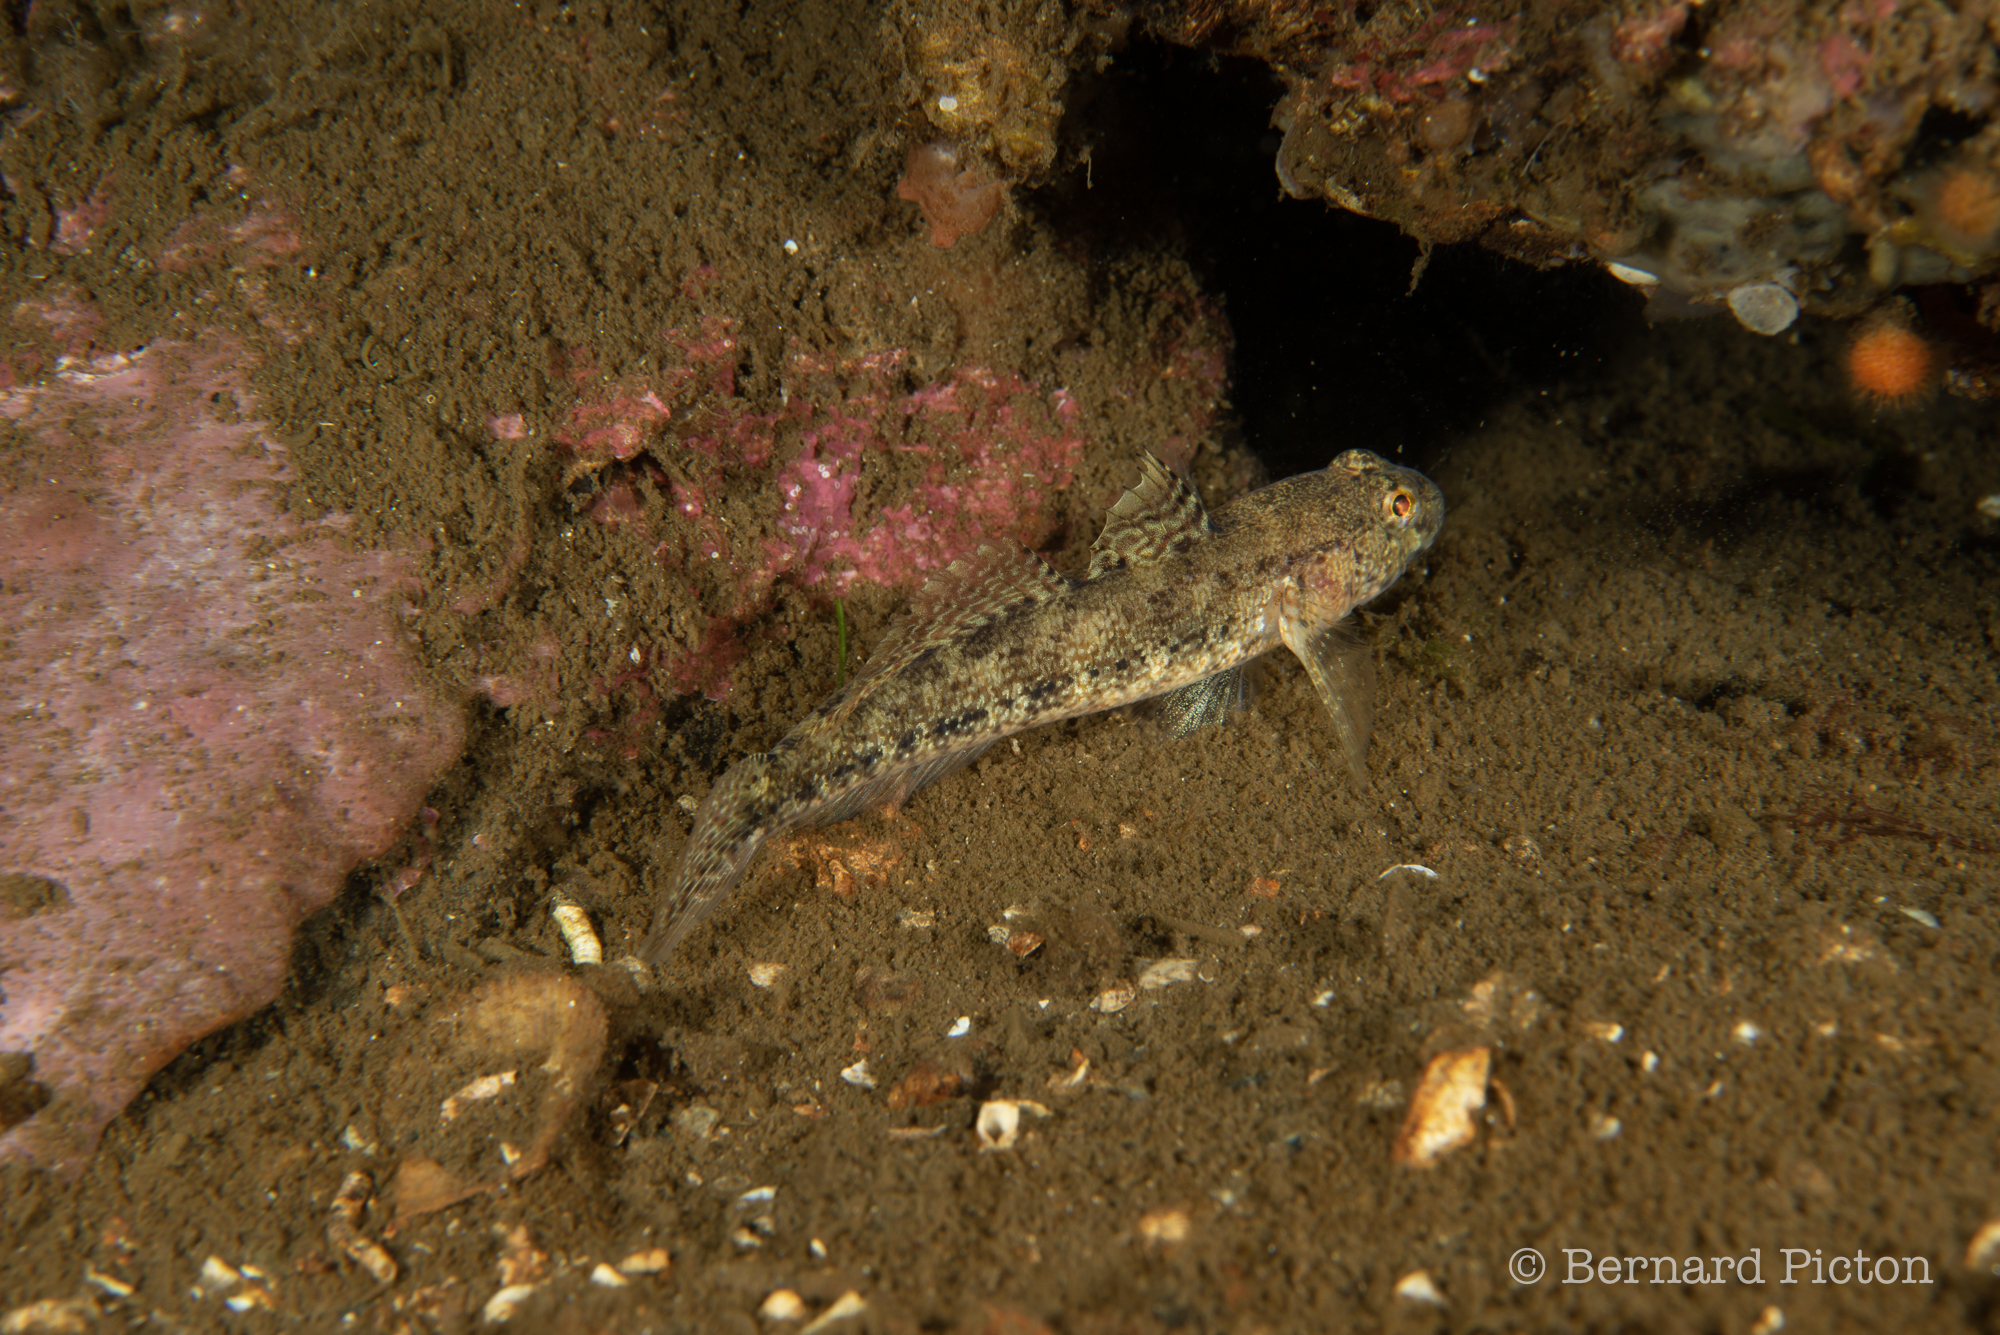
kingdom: Animalia
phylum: Chordata
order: Perciformes
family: Gobiidae
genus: Gobius
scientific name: Gobius couchi
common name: Couch's goby
